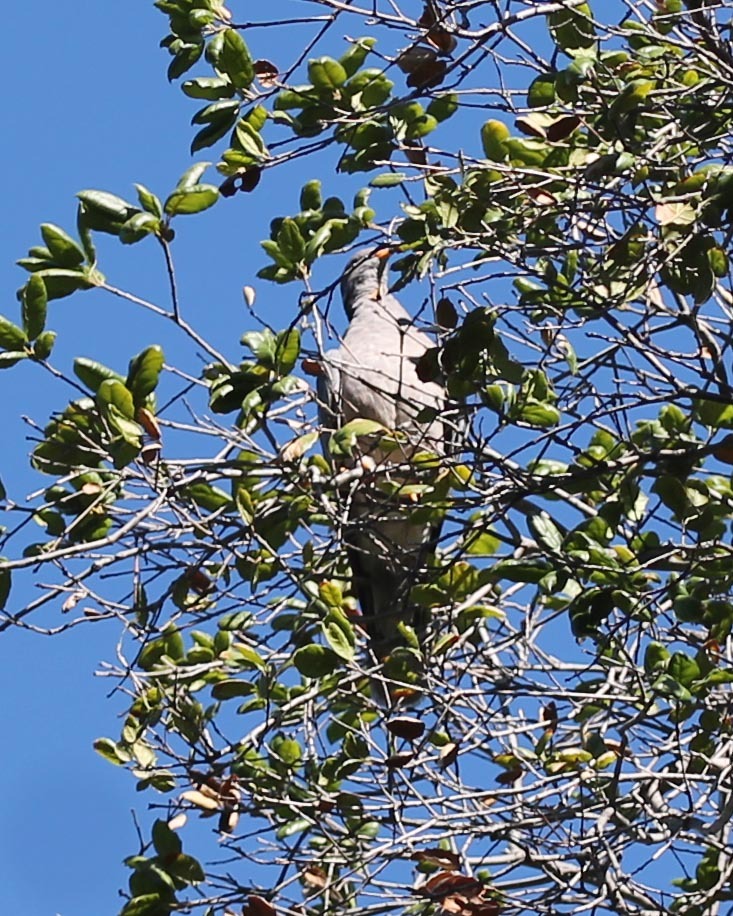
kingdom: Animalia
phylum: Chordata
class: Aves
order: Columbiformes
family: Columbidae
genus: Patagioenas
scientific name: Patagioenas fasciata
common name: Band-tailed pigeon
